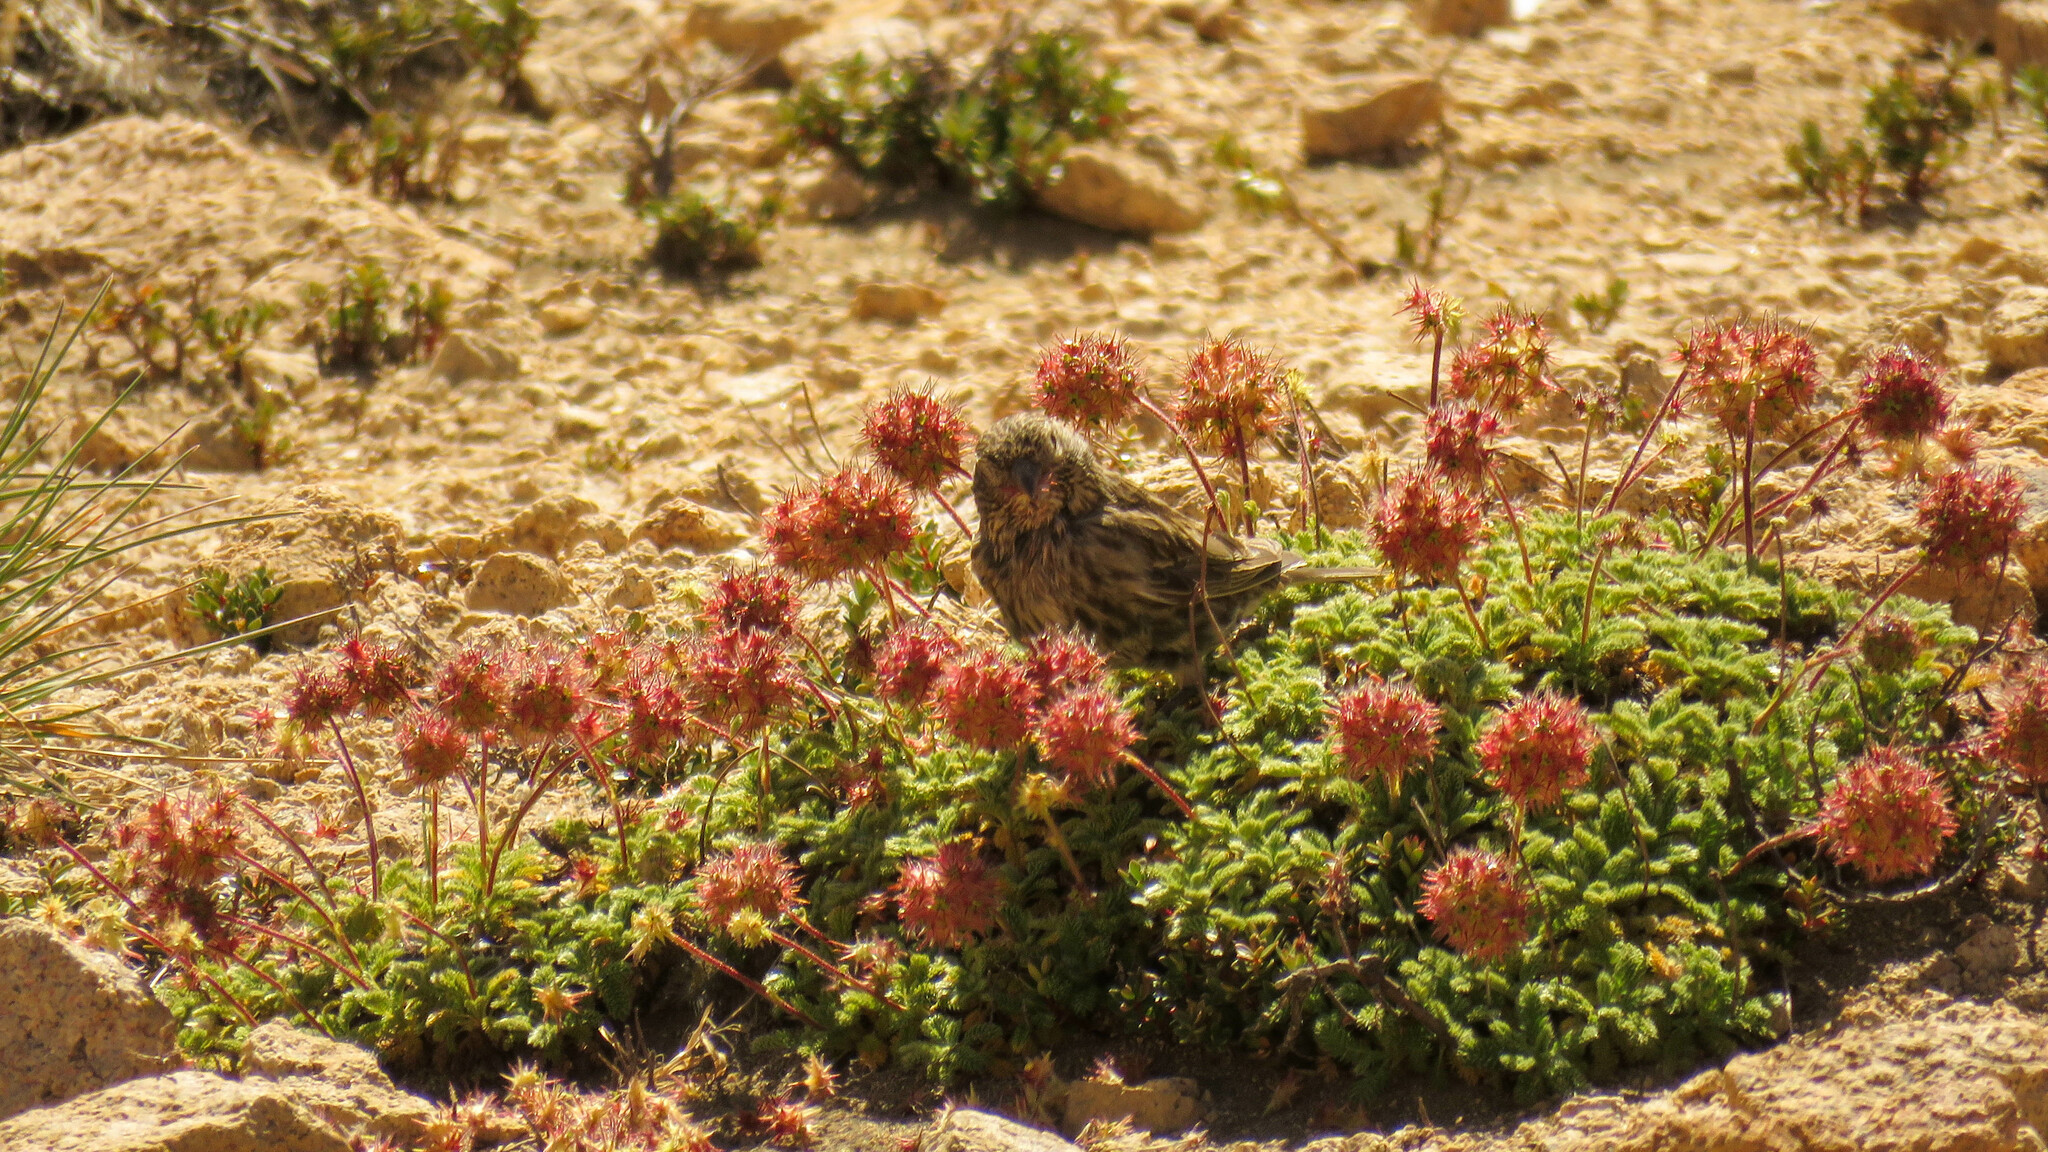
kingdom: Plantae
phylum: Tracheophyta
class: Magnoliopsida
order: Rosales
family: Rosaceae
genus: Acaena
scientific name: Acaena macrocephala
